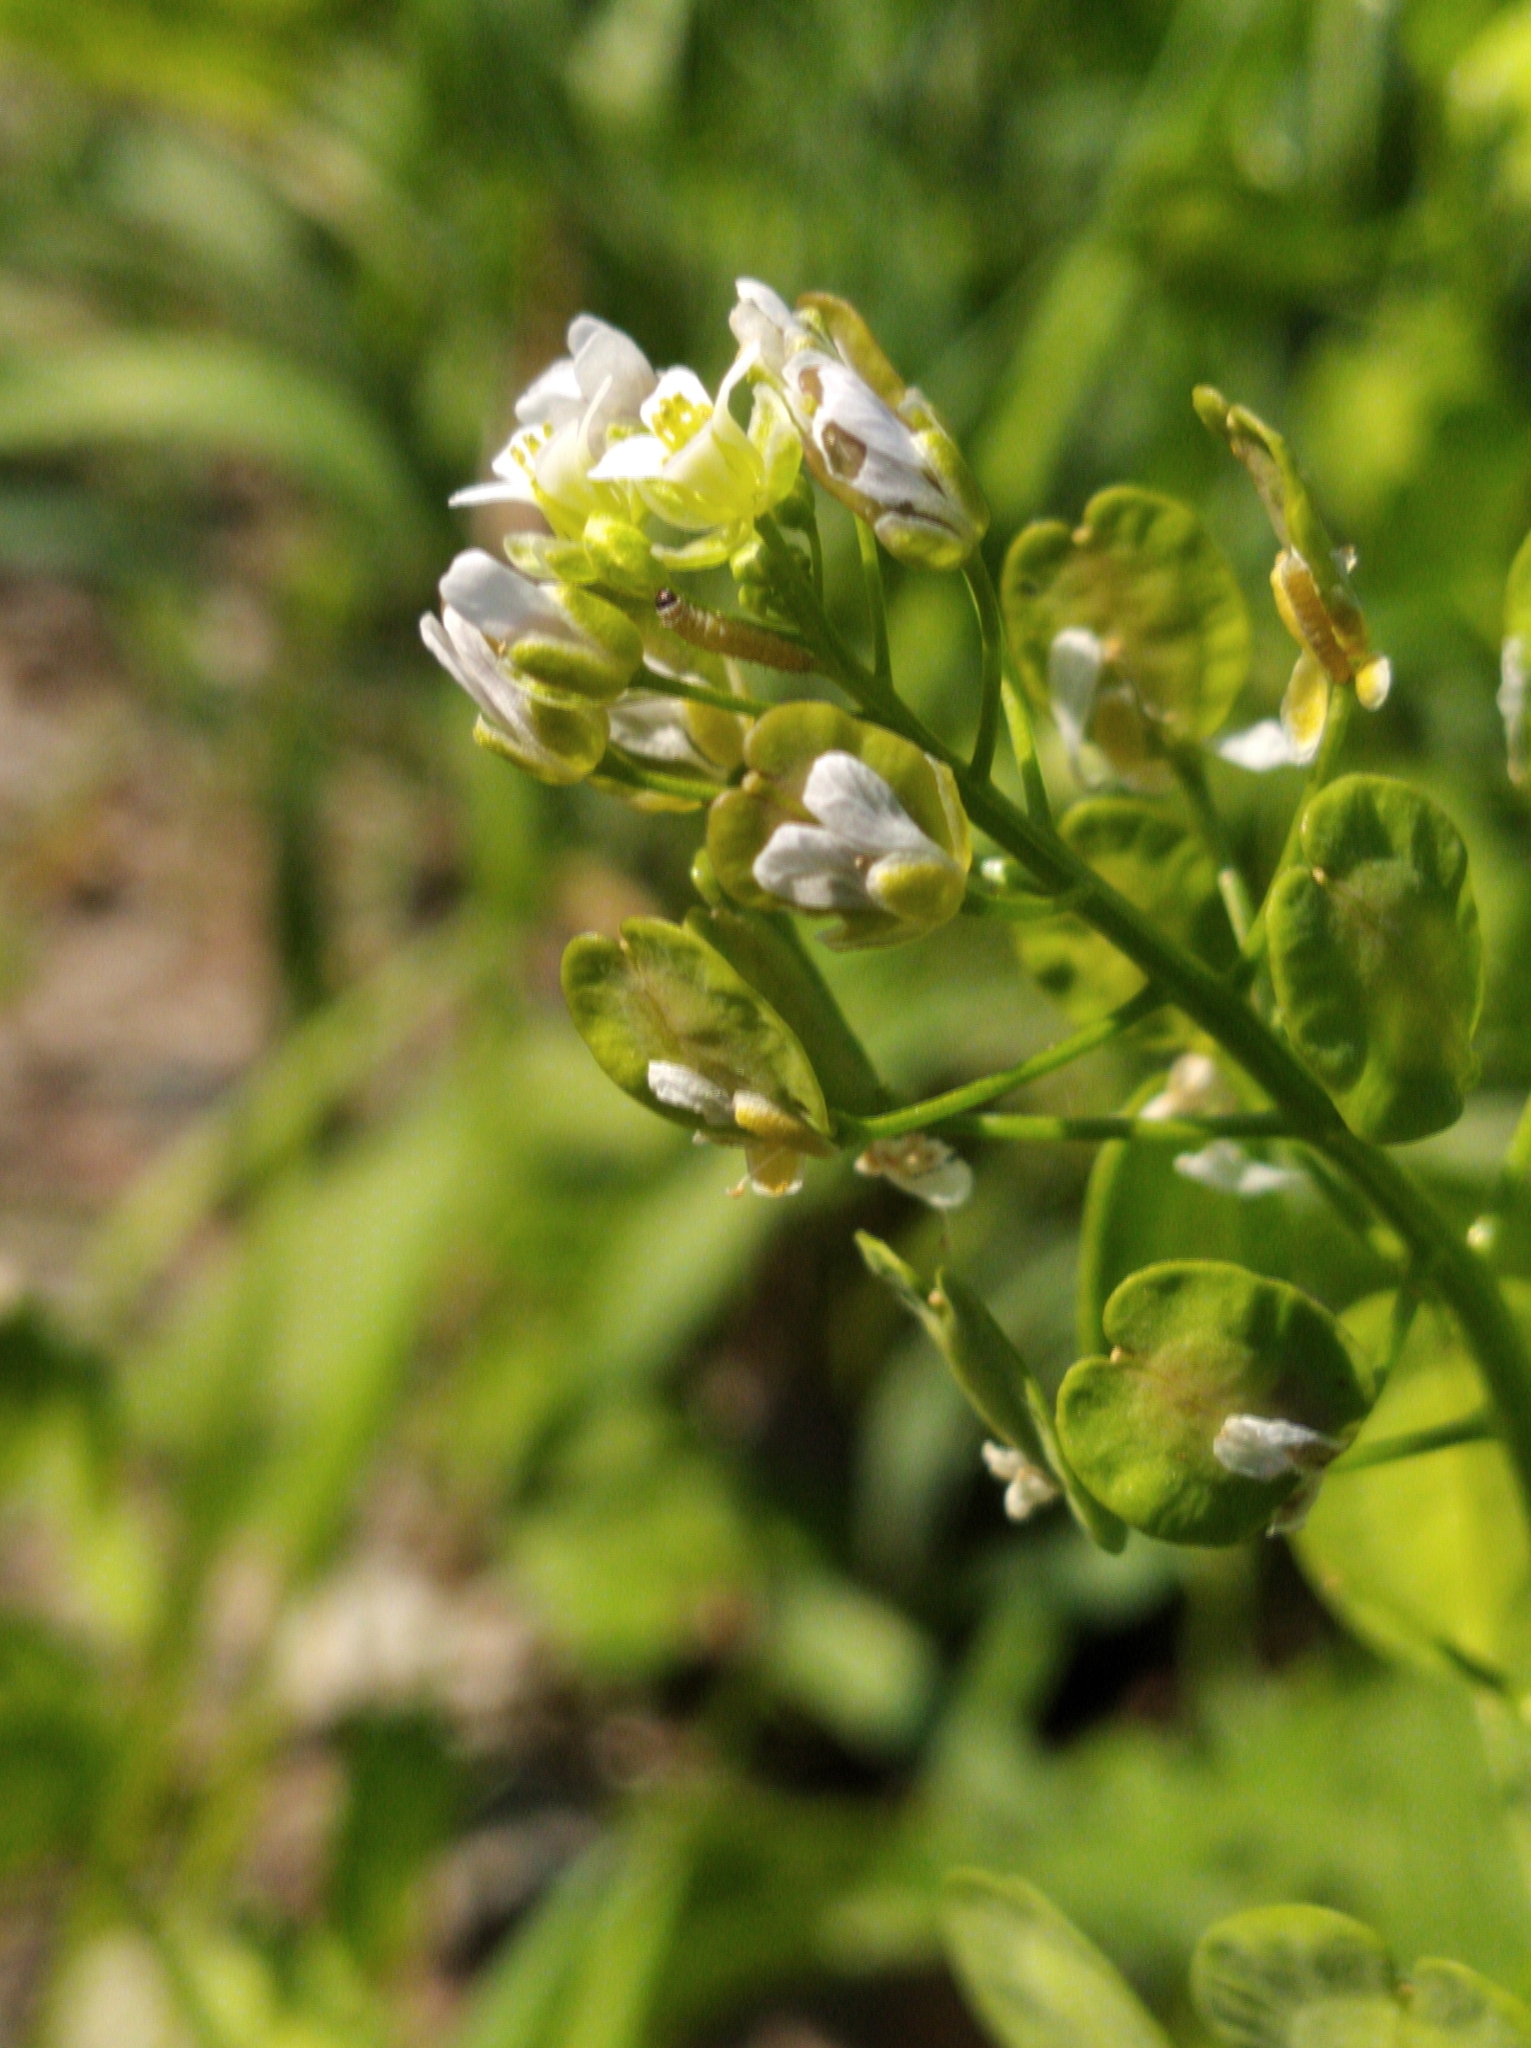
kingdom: Plantae
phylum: Tracheophyta
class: Magnoliopsida
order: Brassicales
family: Brassicaceae
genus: Thlaspi
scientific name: Thlaspi arvense
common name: Field pennycress
